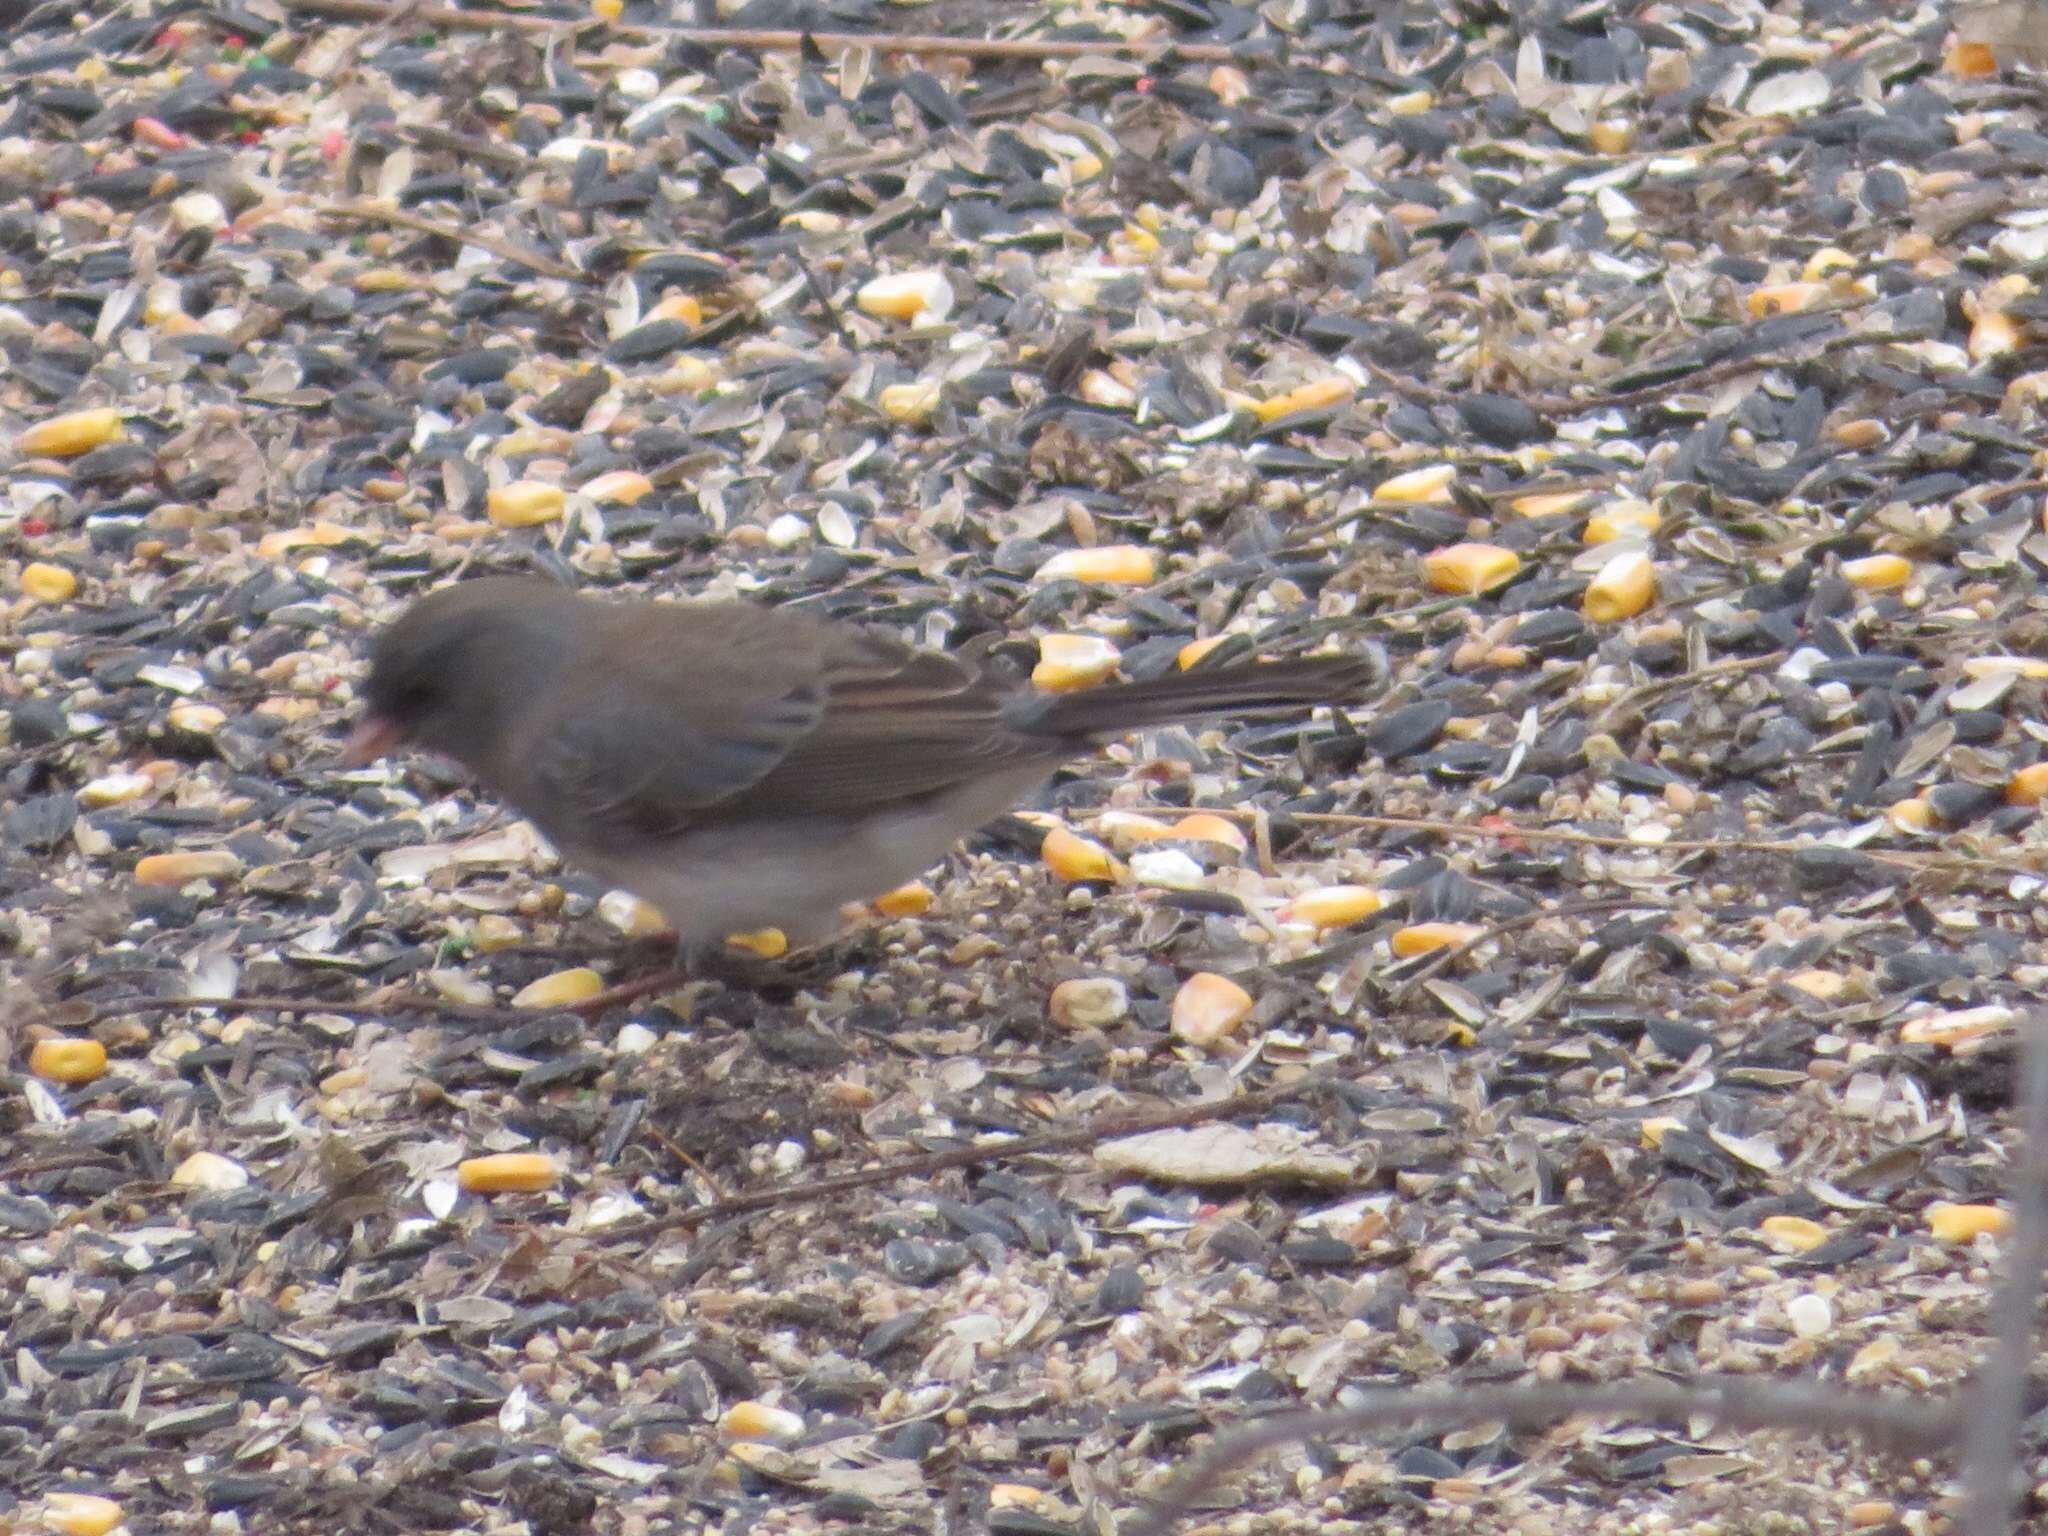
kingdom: Animalia
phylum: Chordata
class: Aves
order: Passeriformes
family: Passerellidae
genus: Junco
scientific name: Junco hyemalis
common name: Dark-eyed junco
